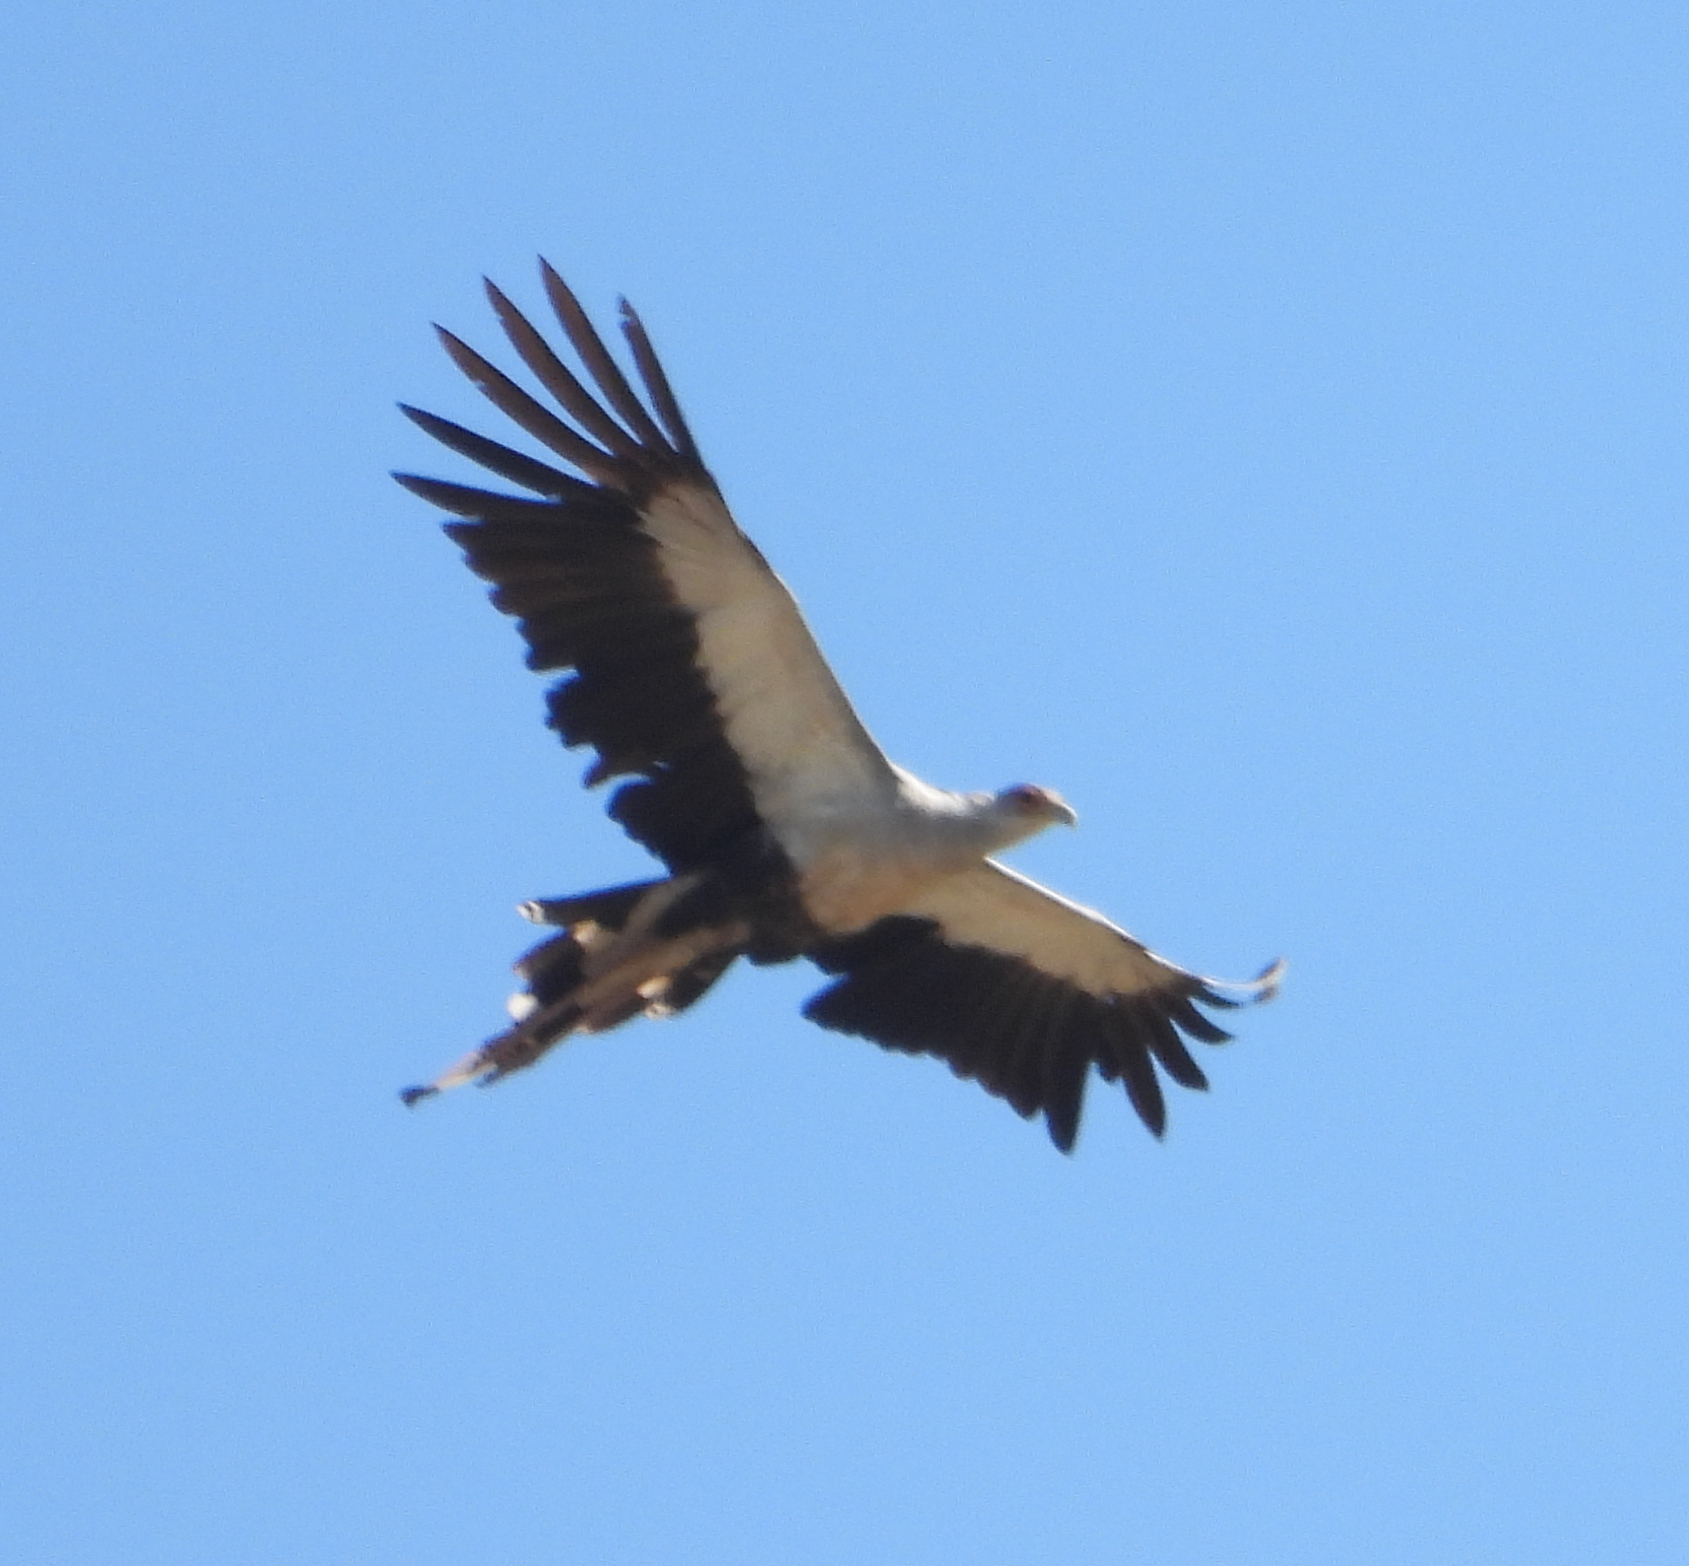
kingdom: Animalia
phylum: Chordata
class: Aves
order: Accipitriformes
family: Sagittariidae
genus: Sagittarius
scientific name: Sagittarius serpentarius
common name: Secretarybird
